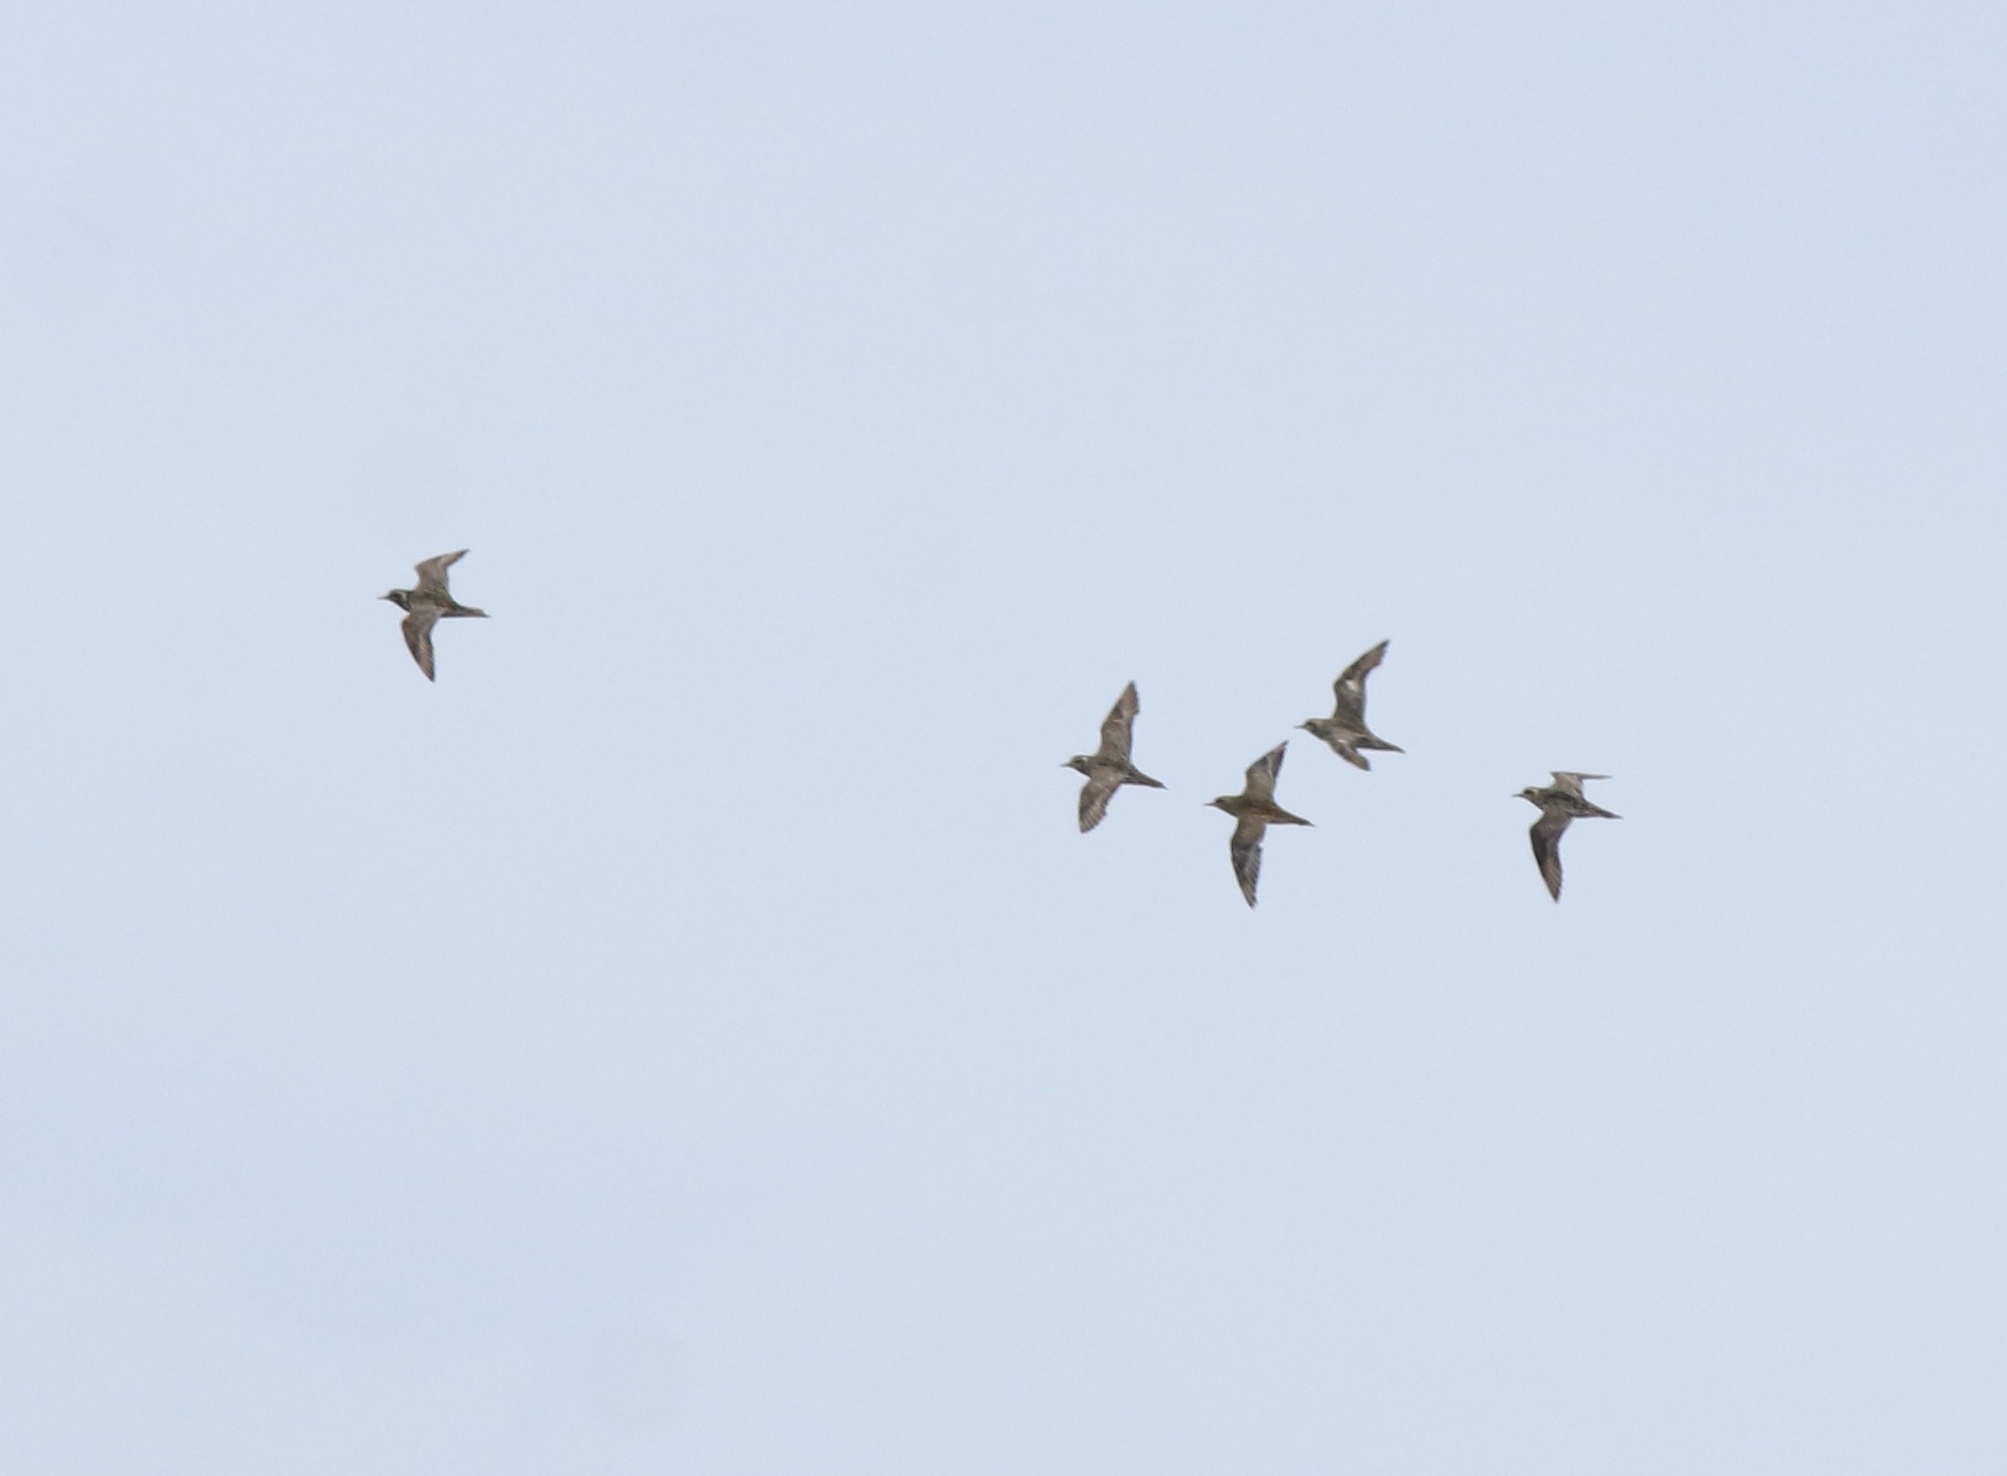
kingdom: Animalia
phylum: Chordata
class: Aves
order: Charadriiformes
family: Charadriidae
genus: Pluvialis
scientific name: Pluvialis fulva
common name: Pacific golden plover
